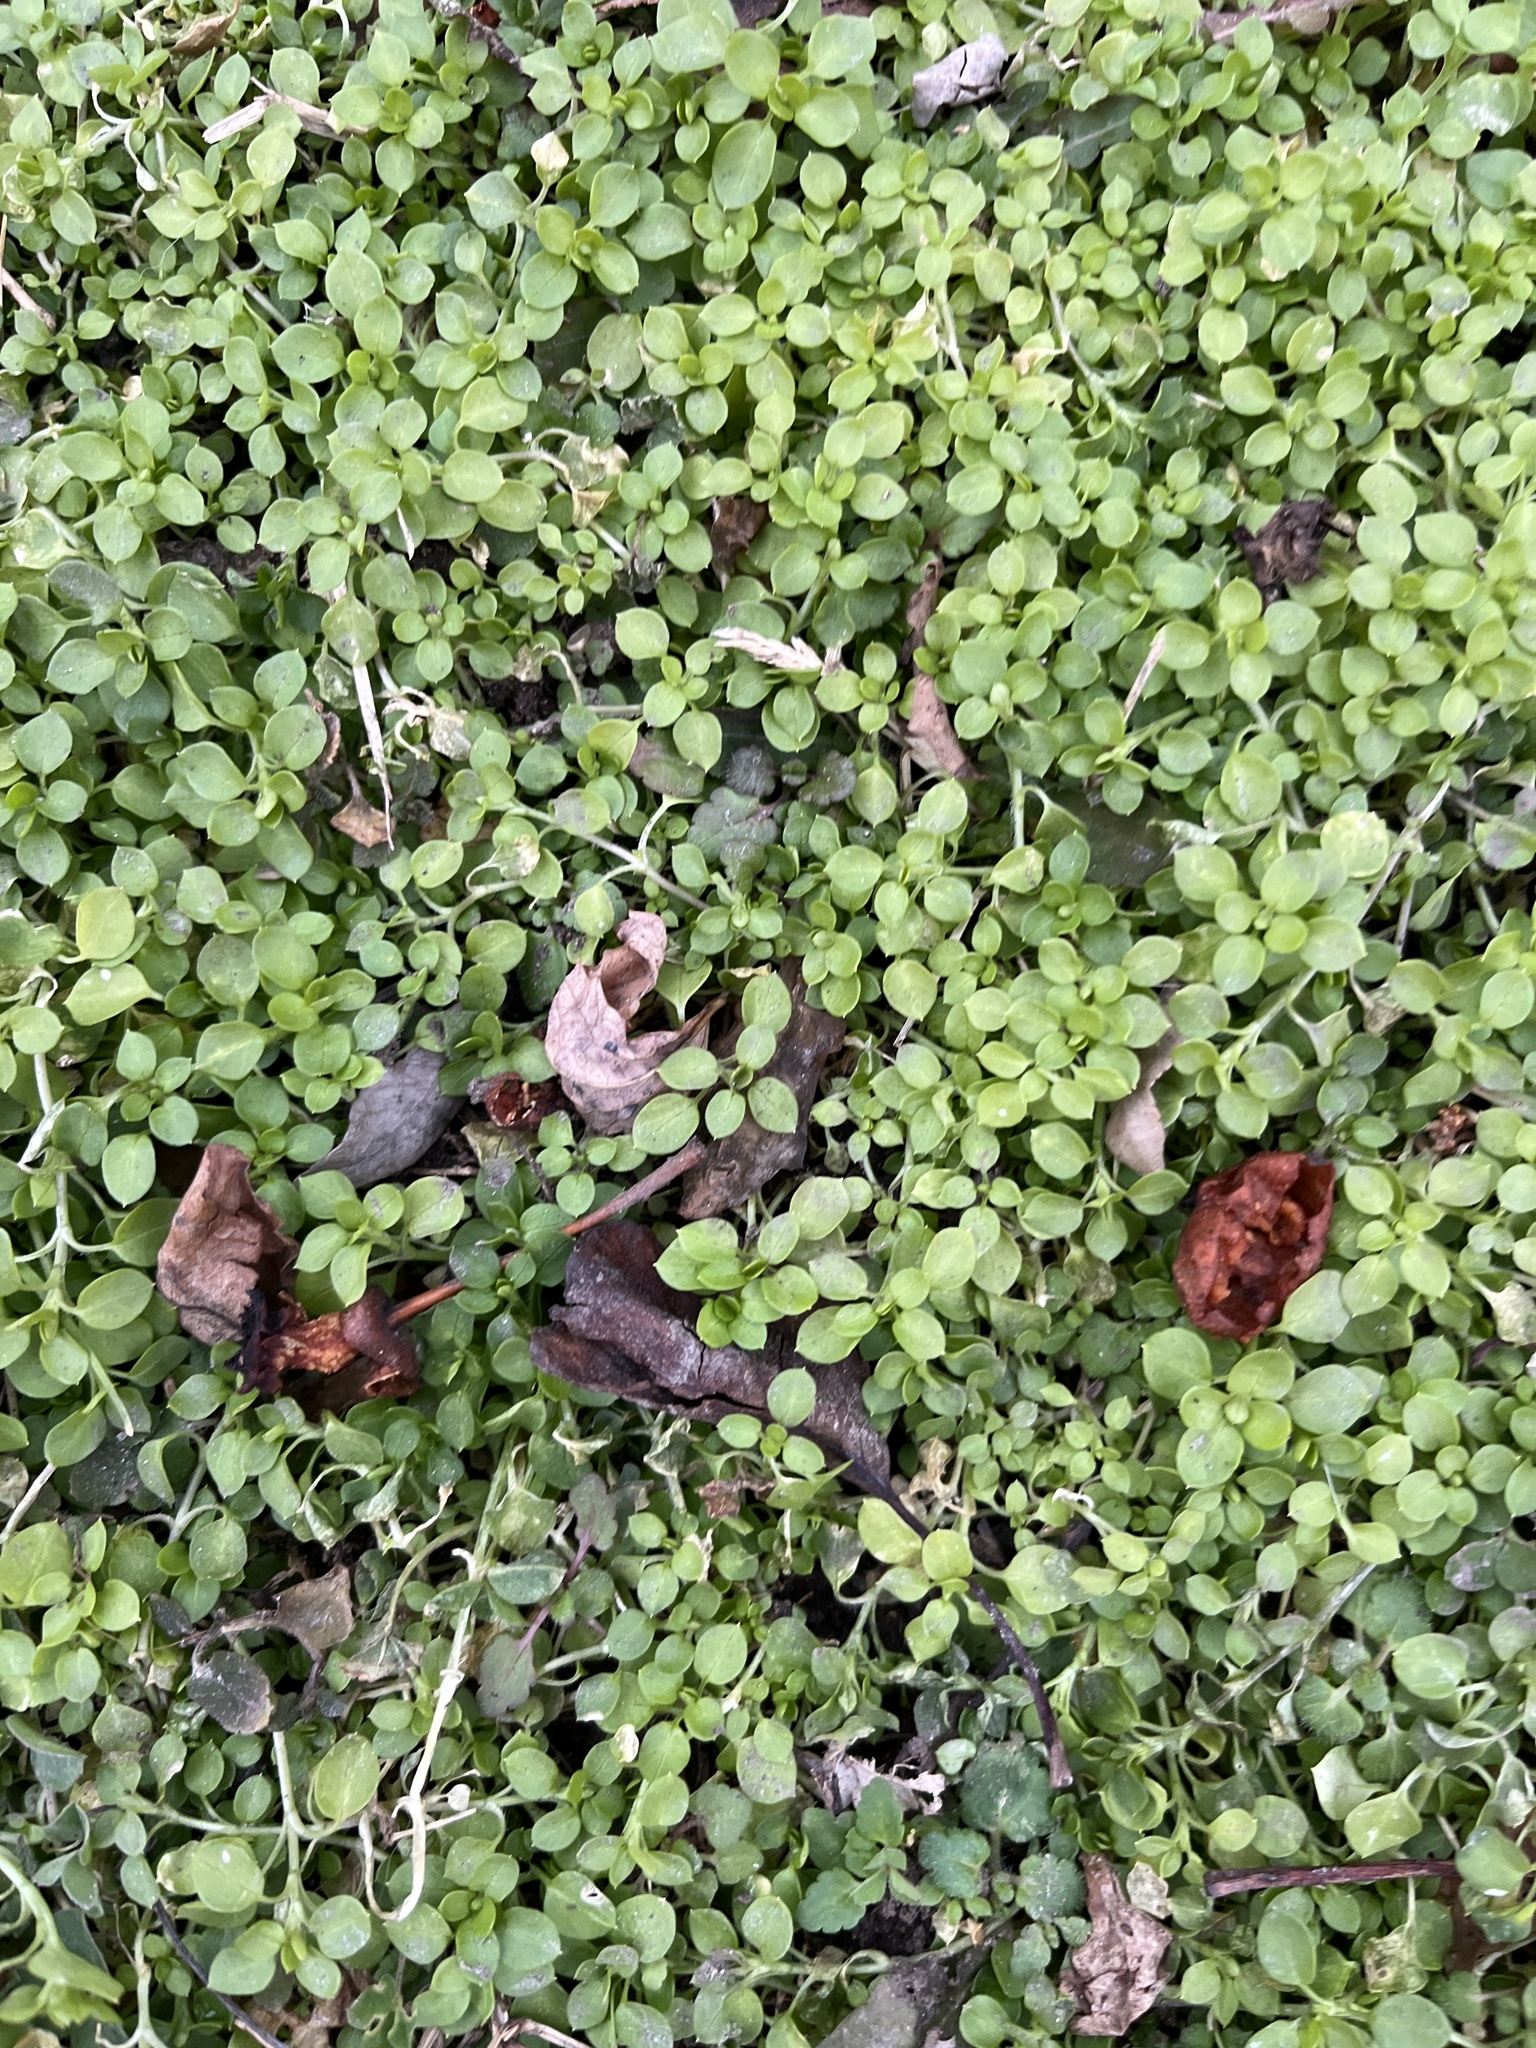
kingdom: Plantae
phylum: Tracheophyta
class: Magnoliopsida
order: Caryophyllales
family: Caryophyllaceae
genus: Stellaria
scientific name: Stellaria media
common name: Common chickweed
